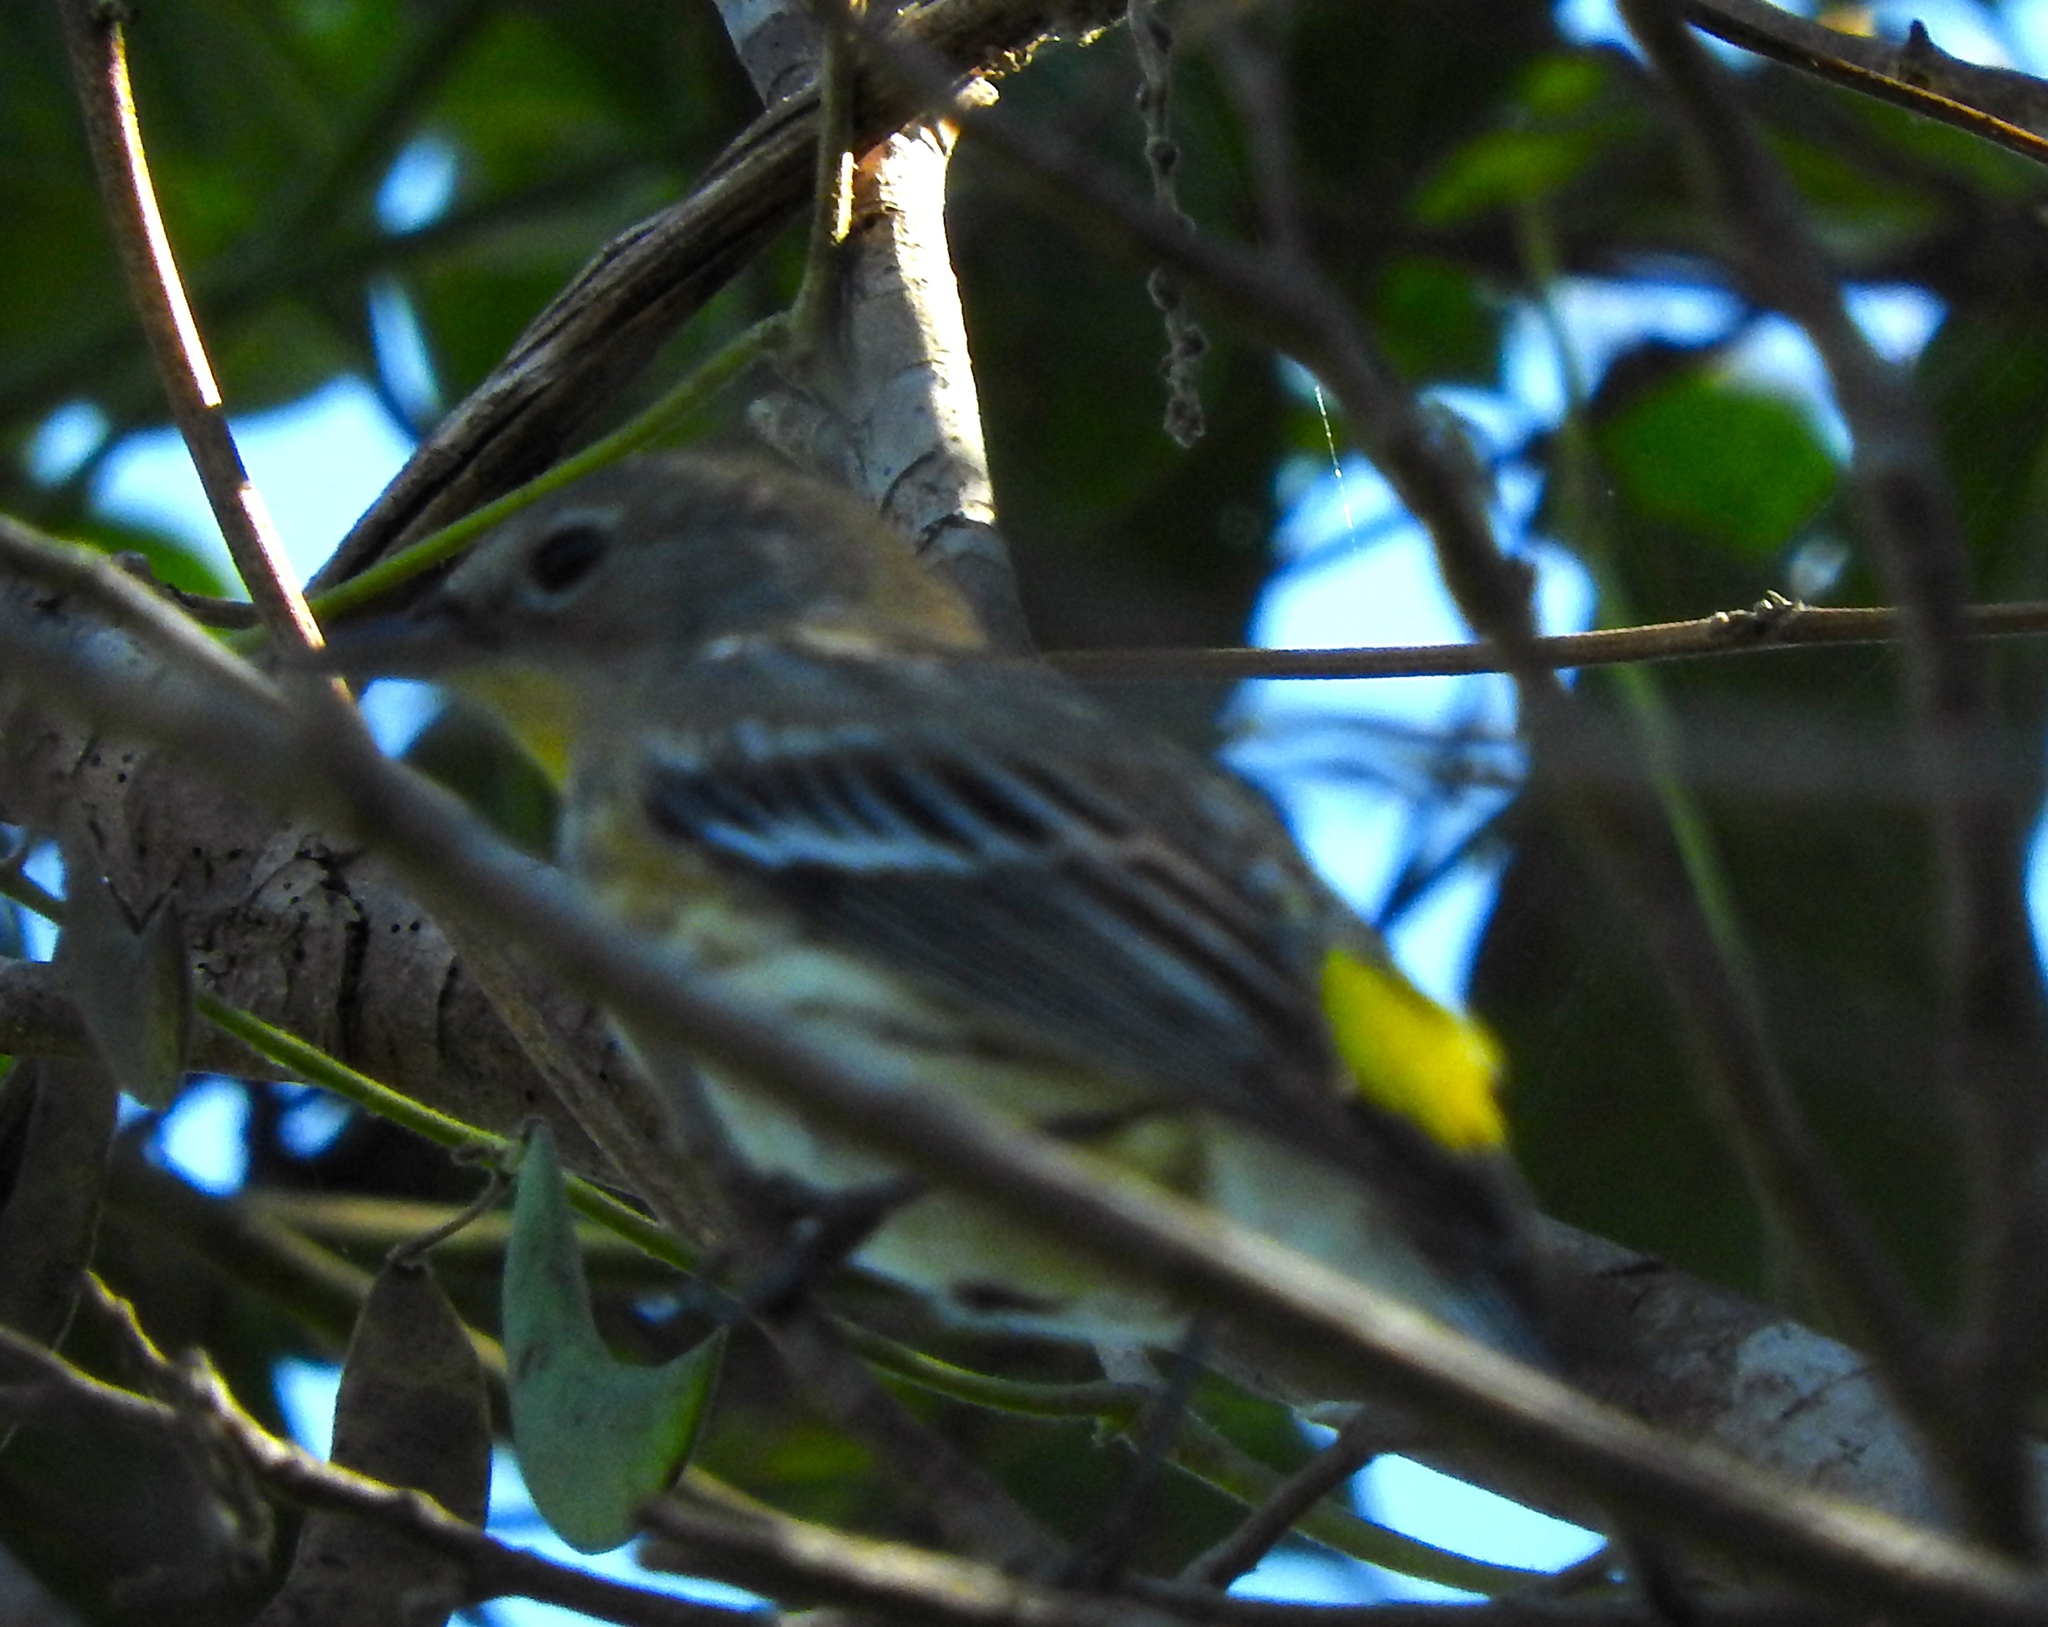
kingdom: Animalia
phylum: Chordata
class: Aves
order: Passeriformes
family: Parulidae
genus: Setophaga
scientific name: Setophaga auduboni
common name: Audubon's warbler
